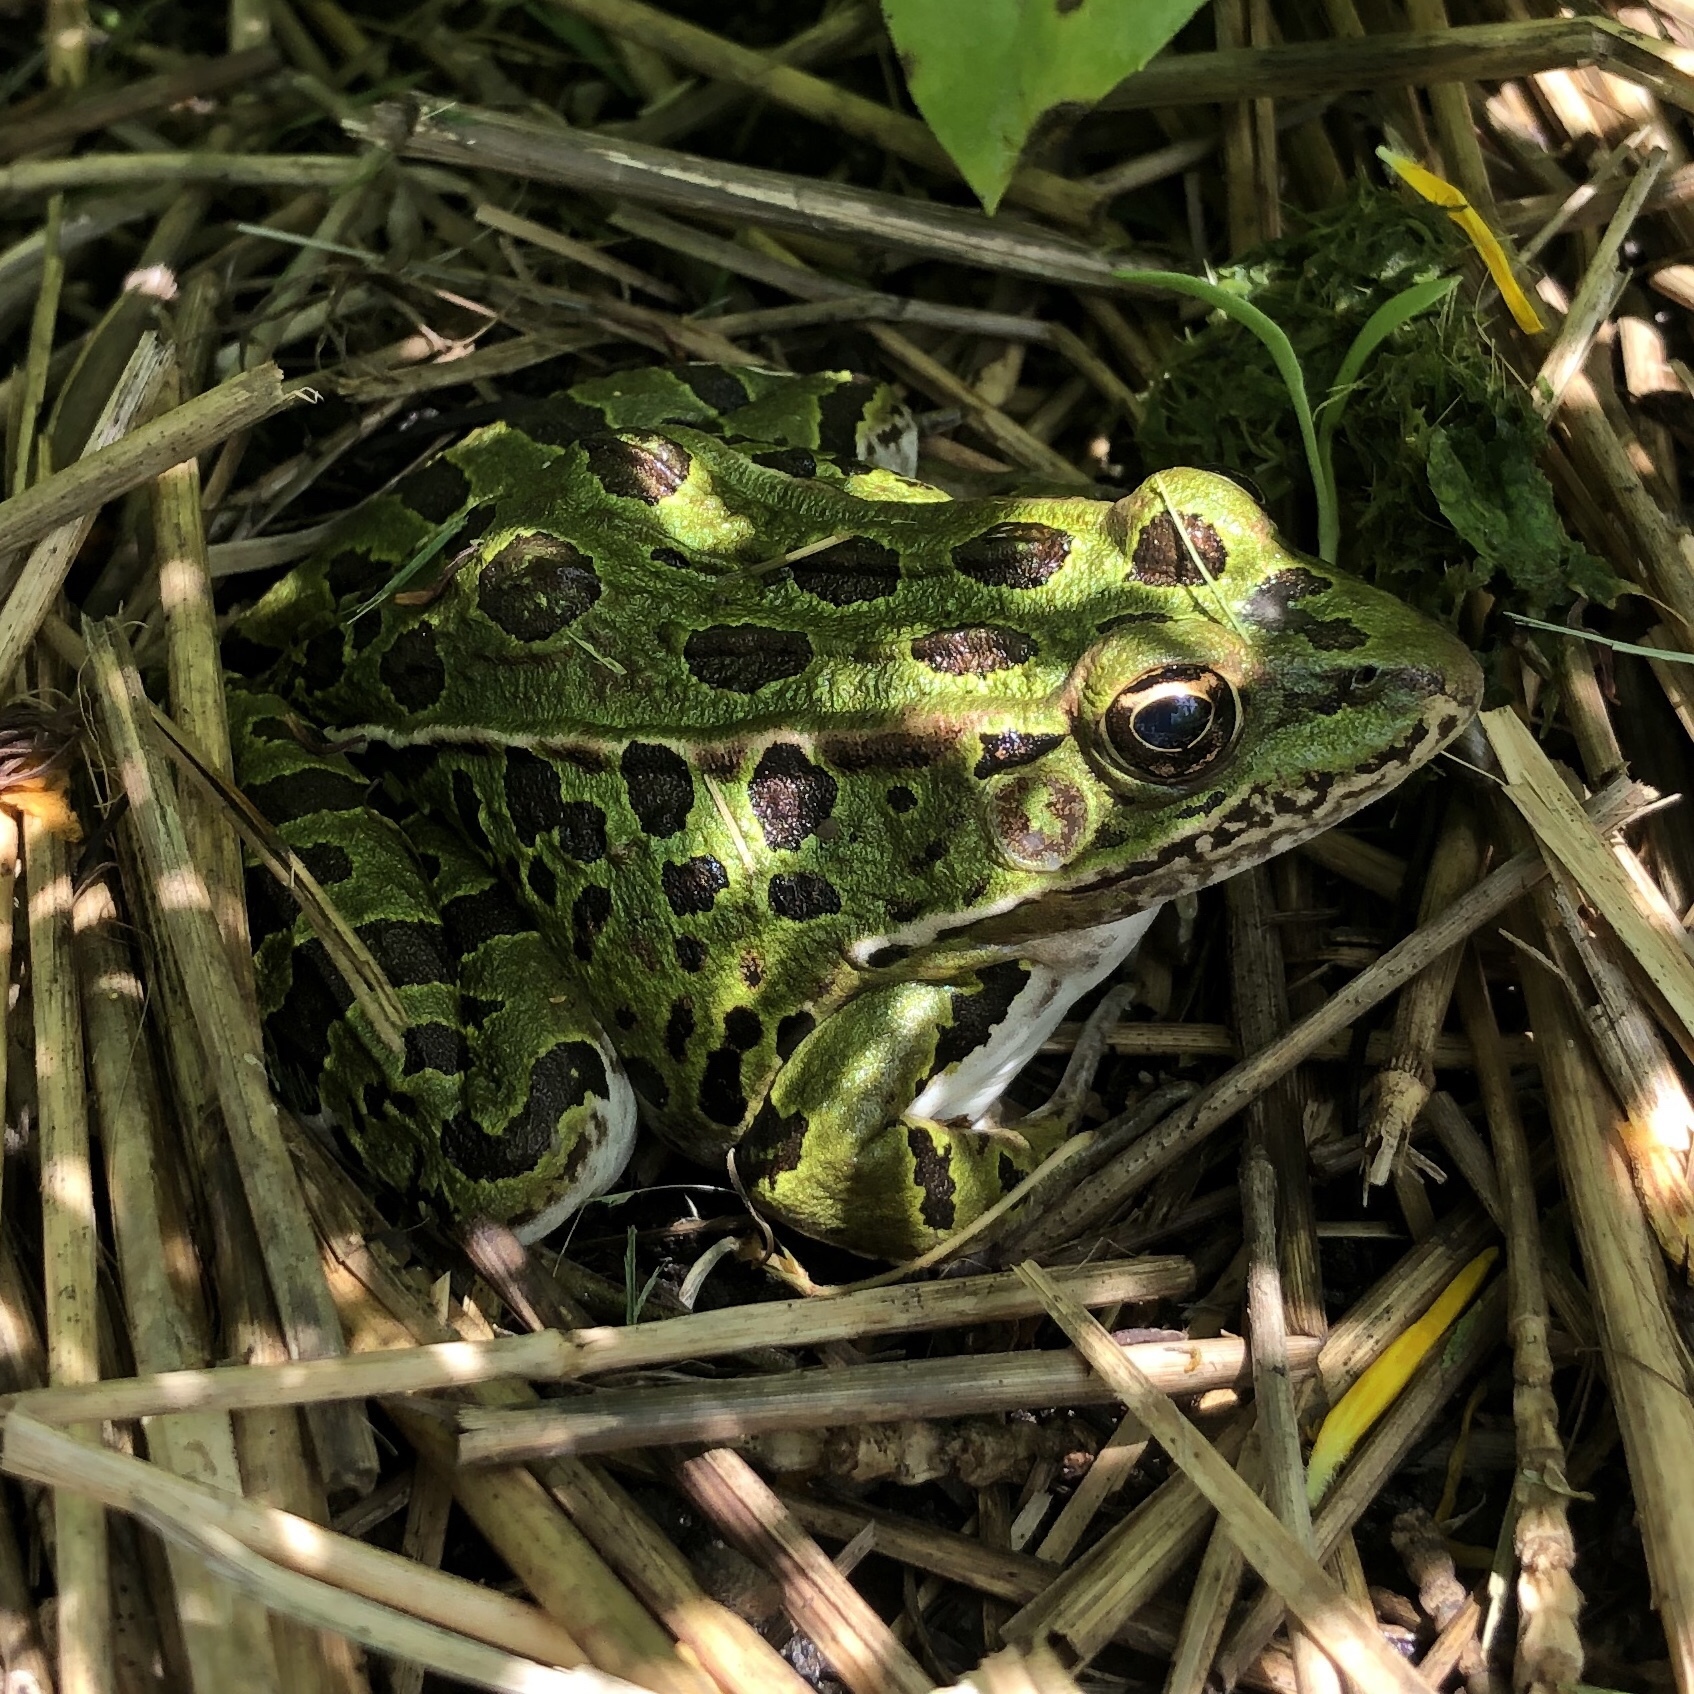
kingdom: Animalia
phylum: Chordata
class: Amphibia
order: Anura
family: Ranidae
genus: Lithobates
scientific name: Lithobates pipiens
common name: Northern leopard frog
